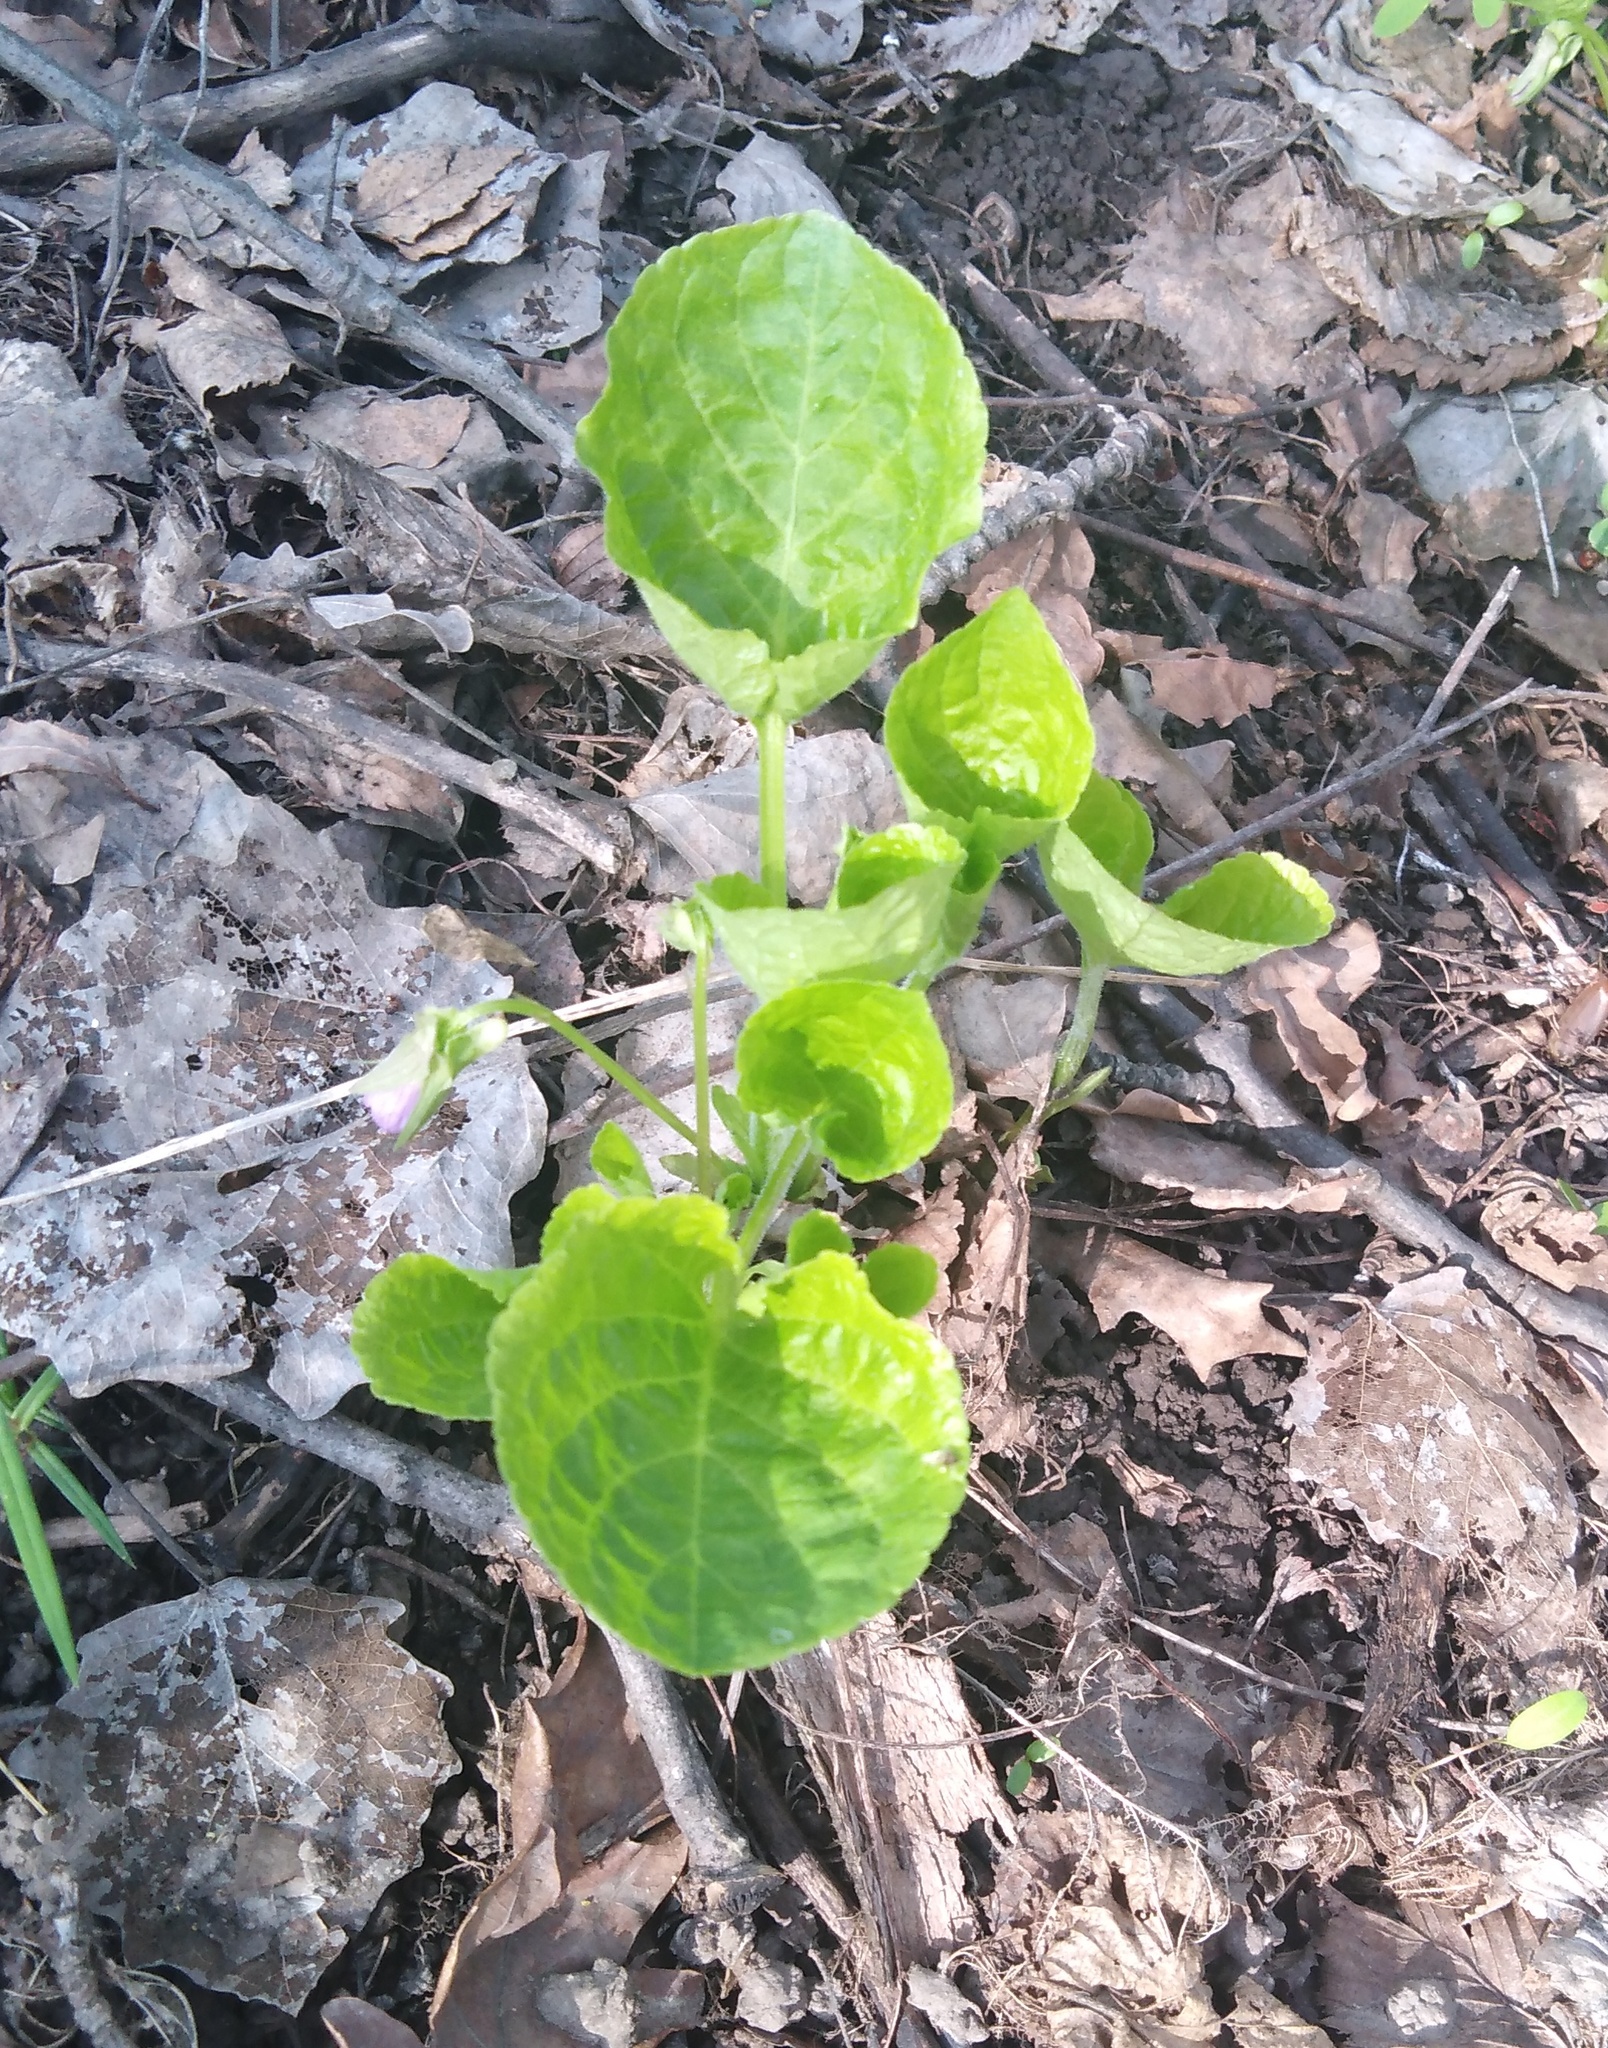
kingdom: Plantae
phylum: Tracheophyta
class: Magnoliopsida
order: Malpighiales
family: Violaceae
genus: Viola
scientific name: Viola mirabilis
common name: Wonder violet
